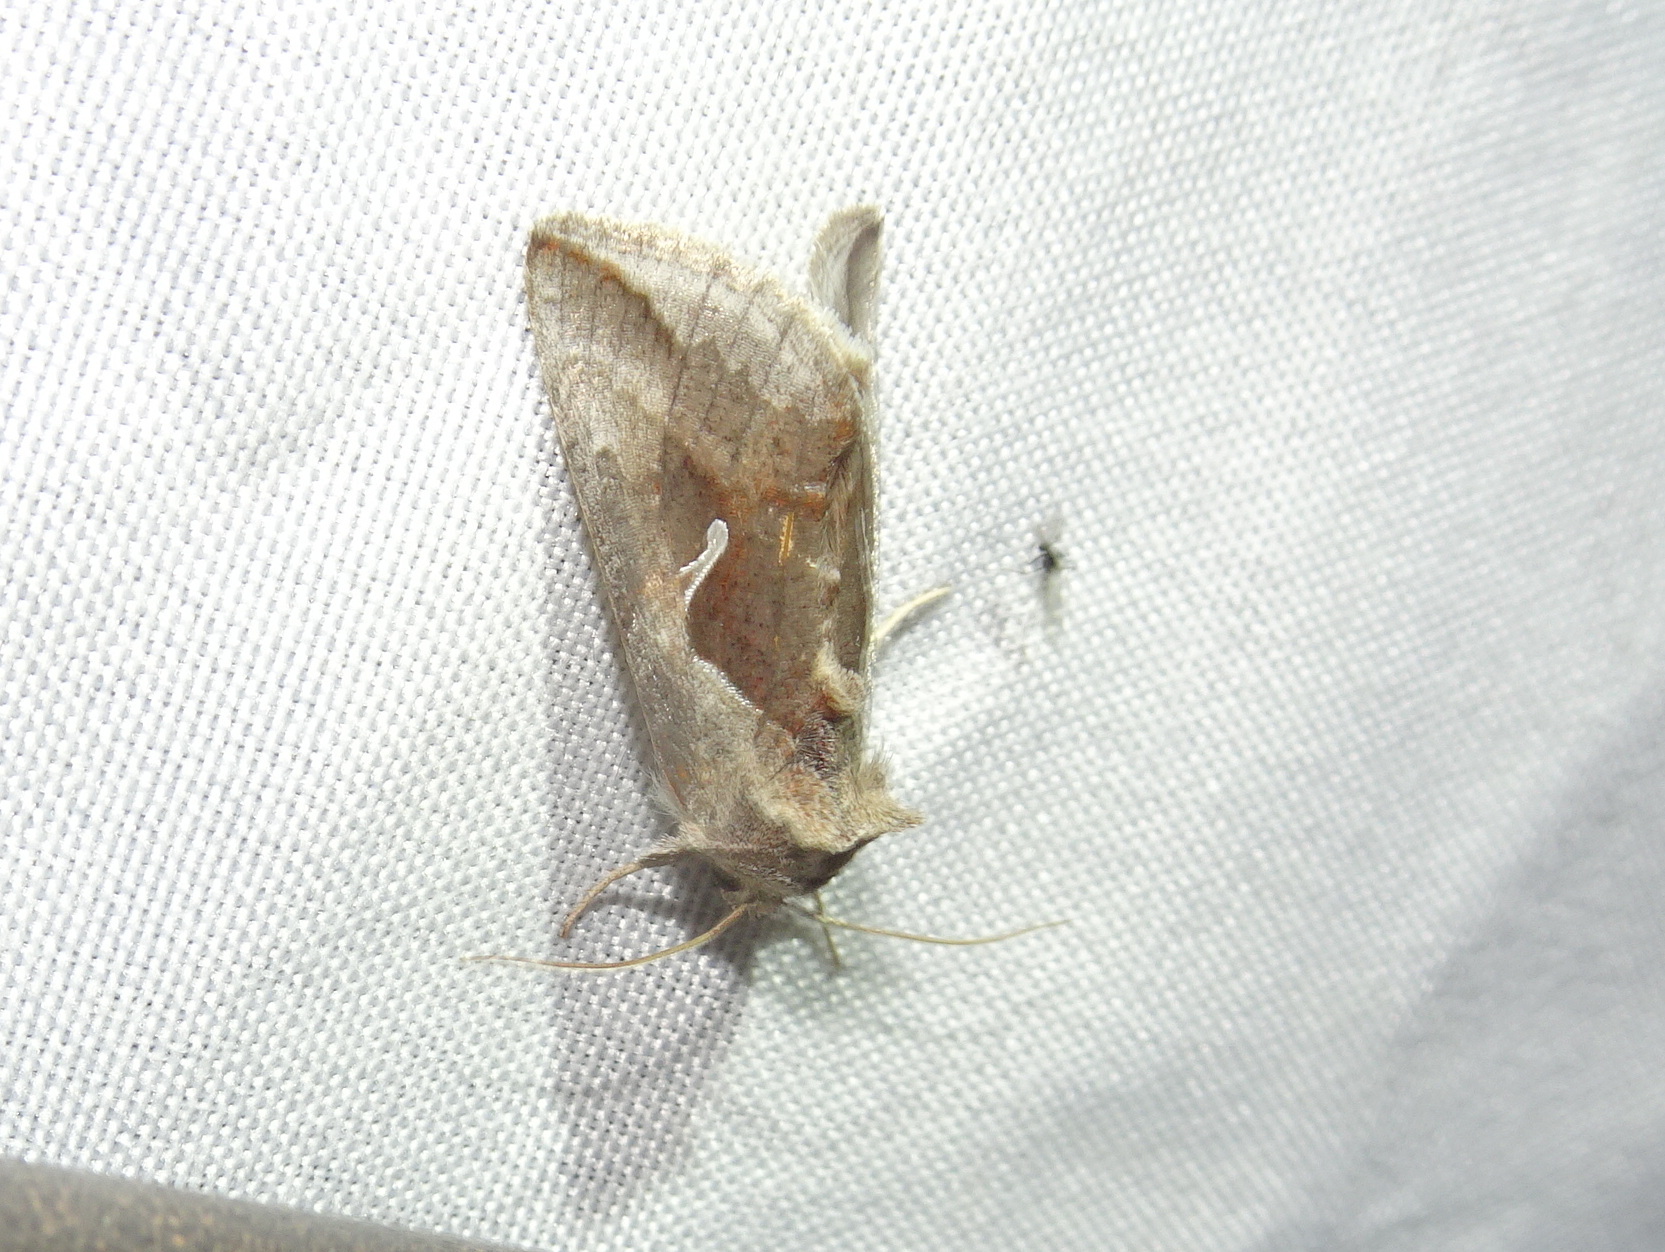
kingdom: Animalia
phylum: Arthropoda
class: Insecta
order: Lepidoptera
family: Noctuidae
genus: Anagrapha
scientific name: Anagrapha falcifera
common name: Celery looper
